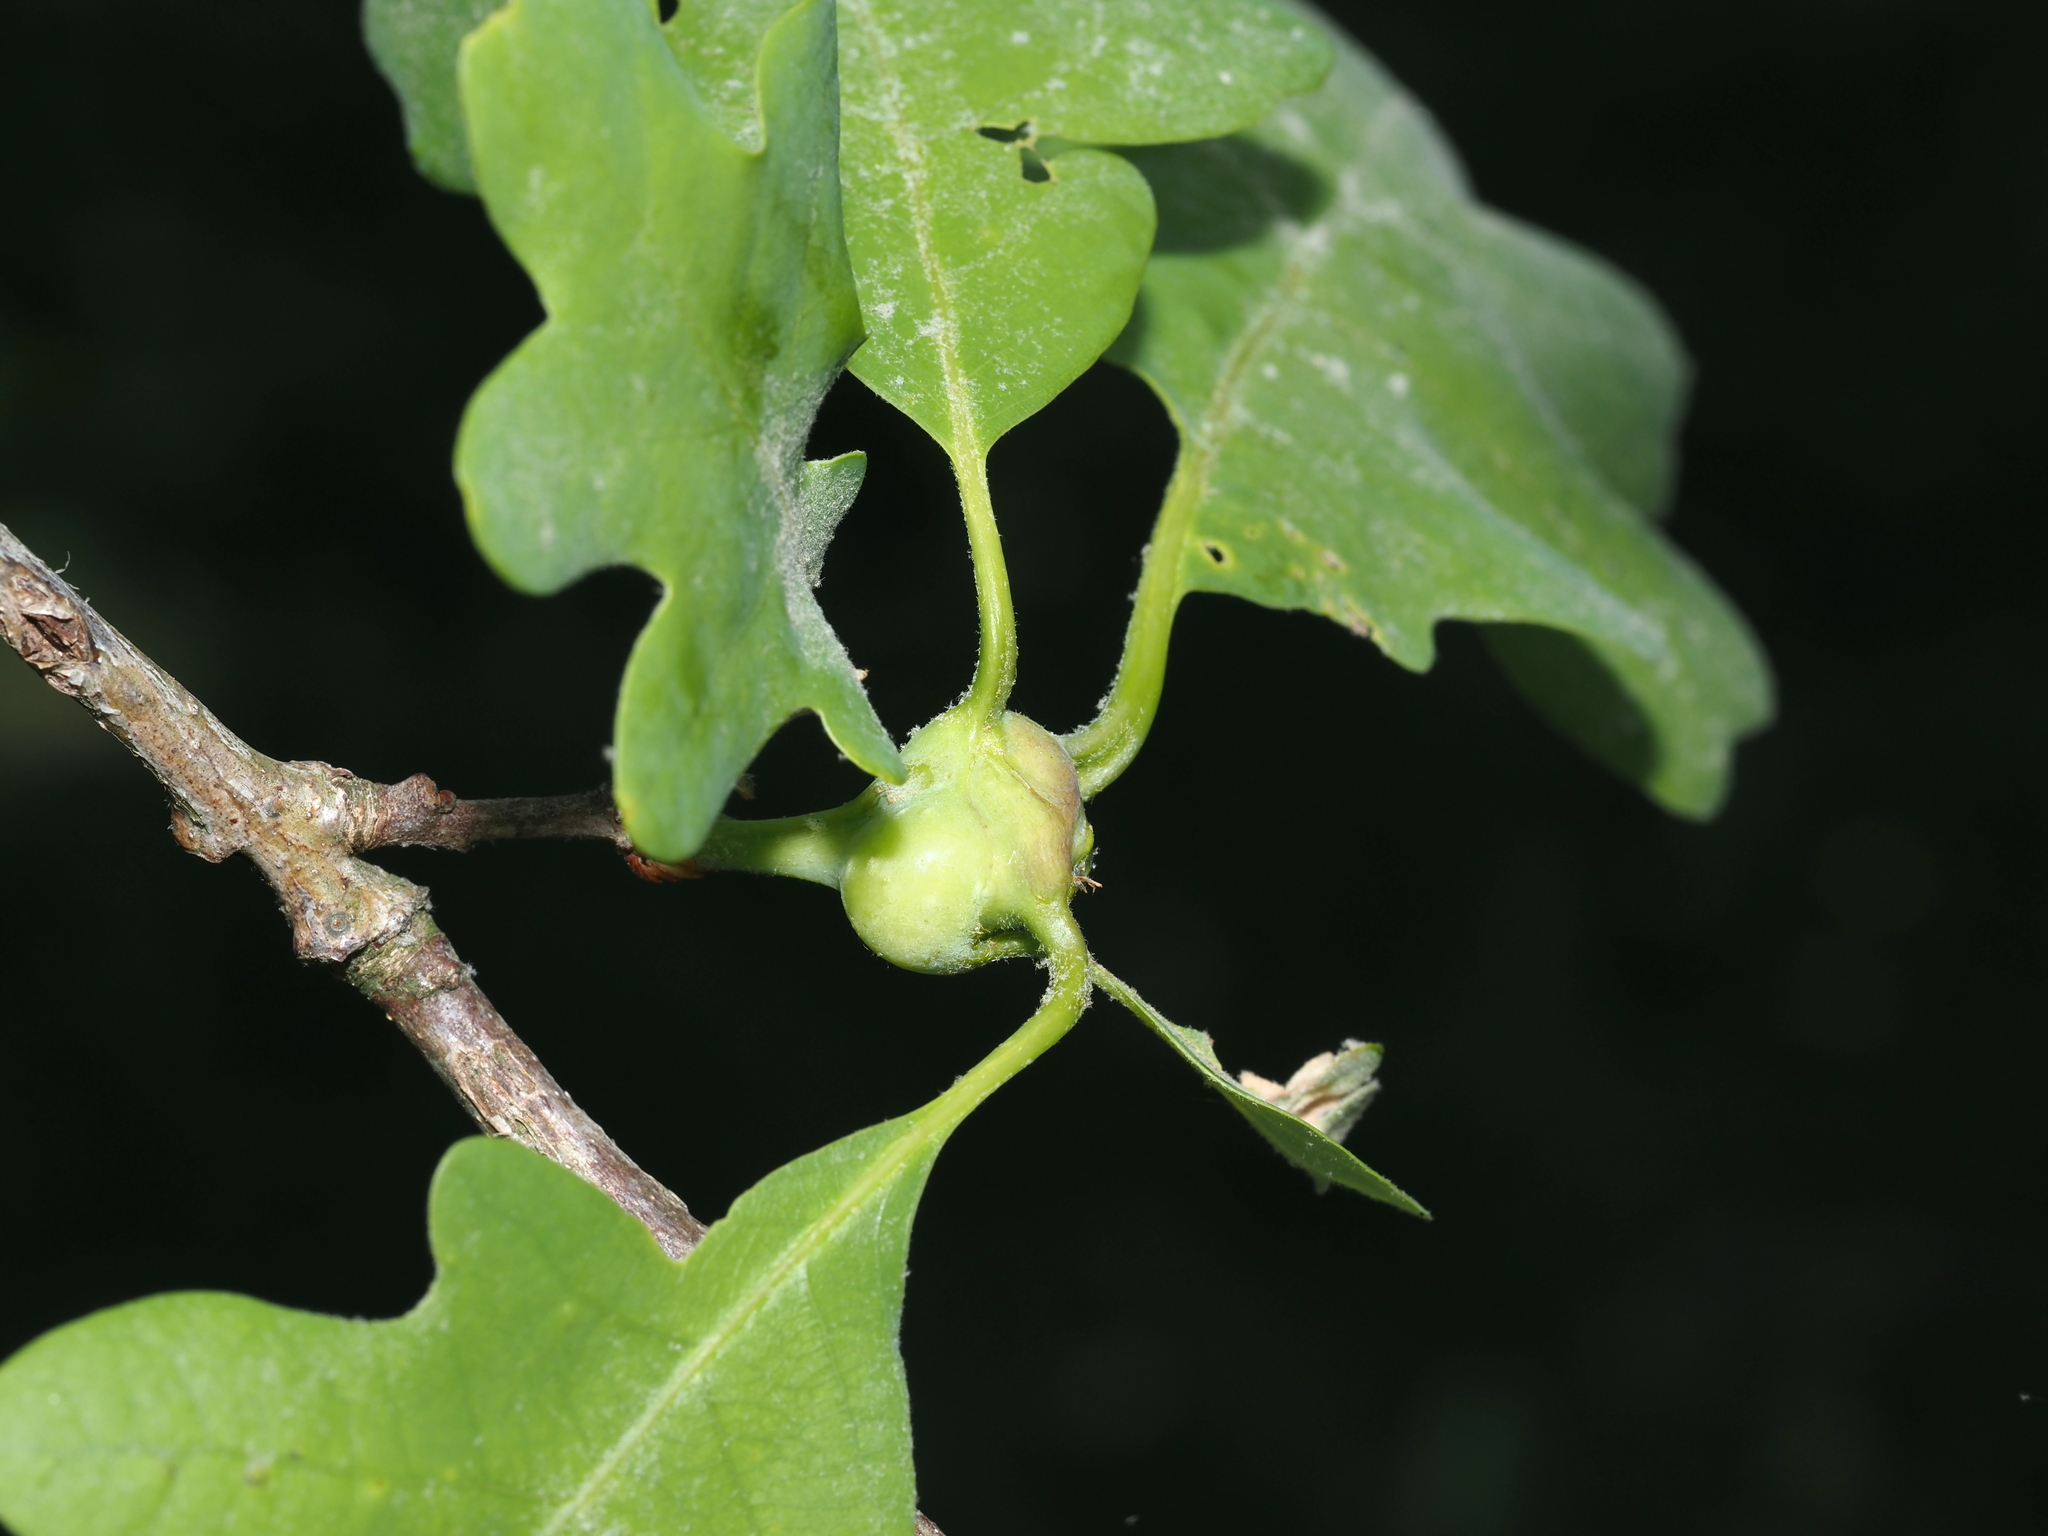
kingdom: Animalia
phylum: Arthropoda
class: Insecta
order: Hymenoptera
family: Cynipidae
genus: Callirhytis
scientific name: Callirhytis clavula
